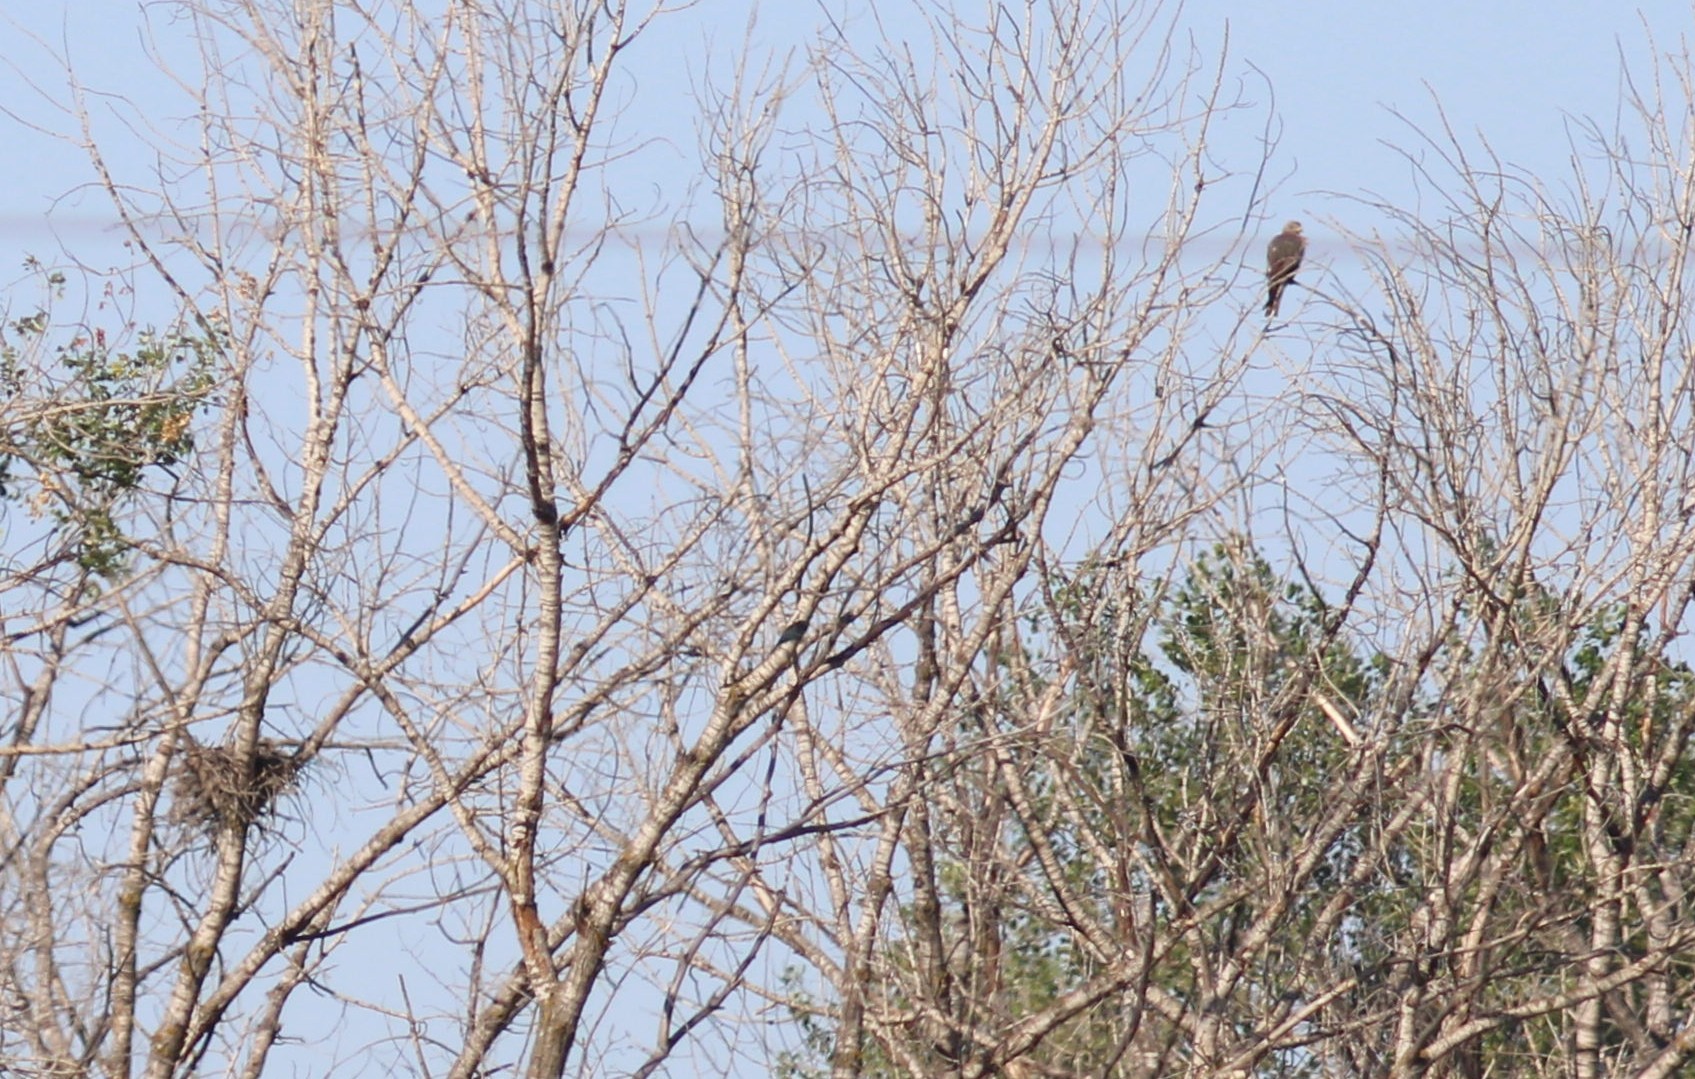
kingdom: Animalia
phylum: Chordata
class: Aves
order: Accipitriformes
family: Accipitridae
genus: Milvus
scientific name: Milvus migrans
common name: Black kite
